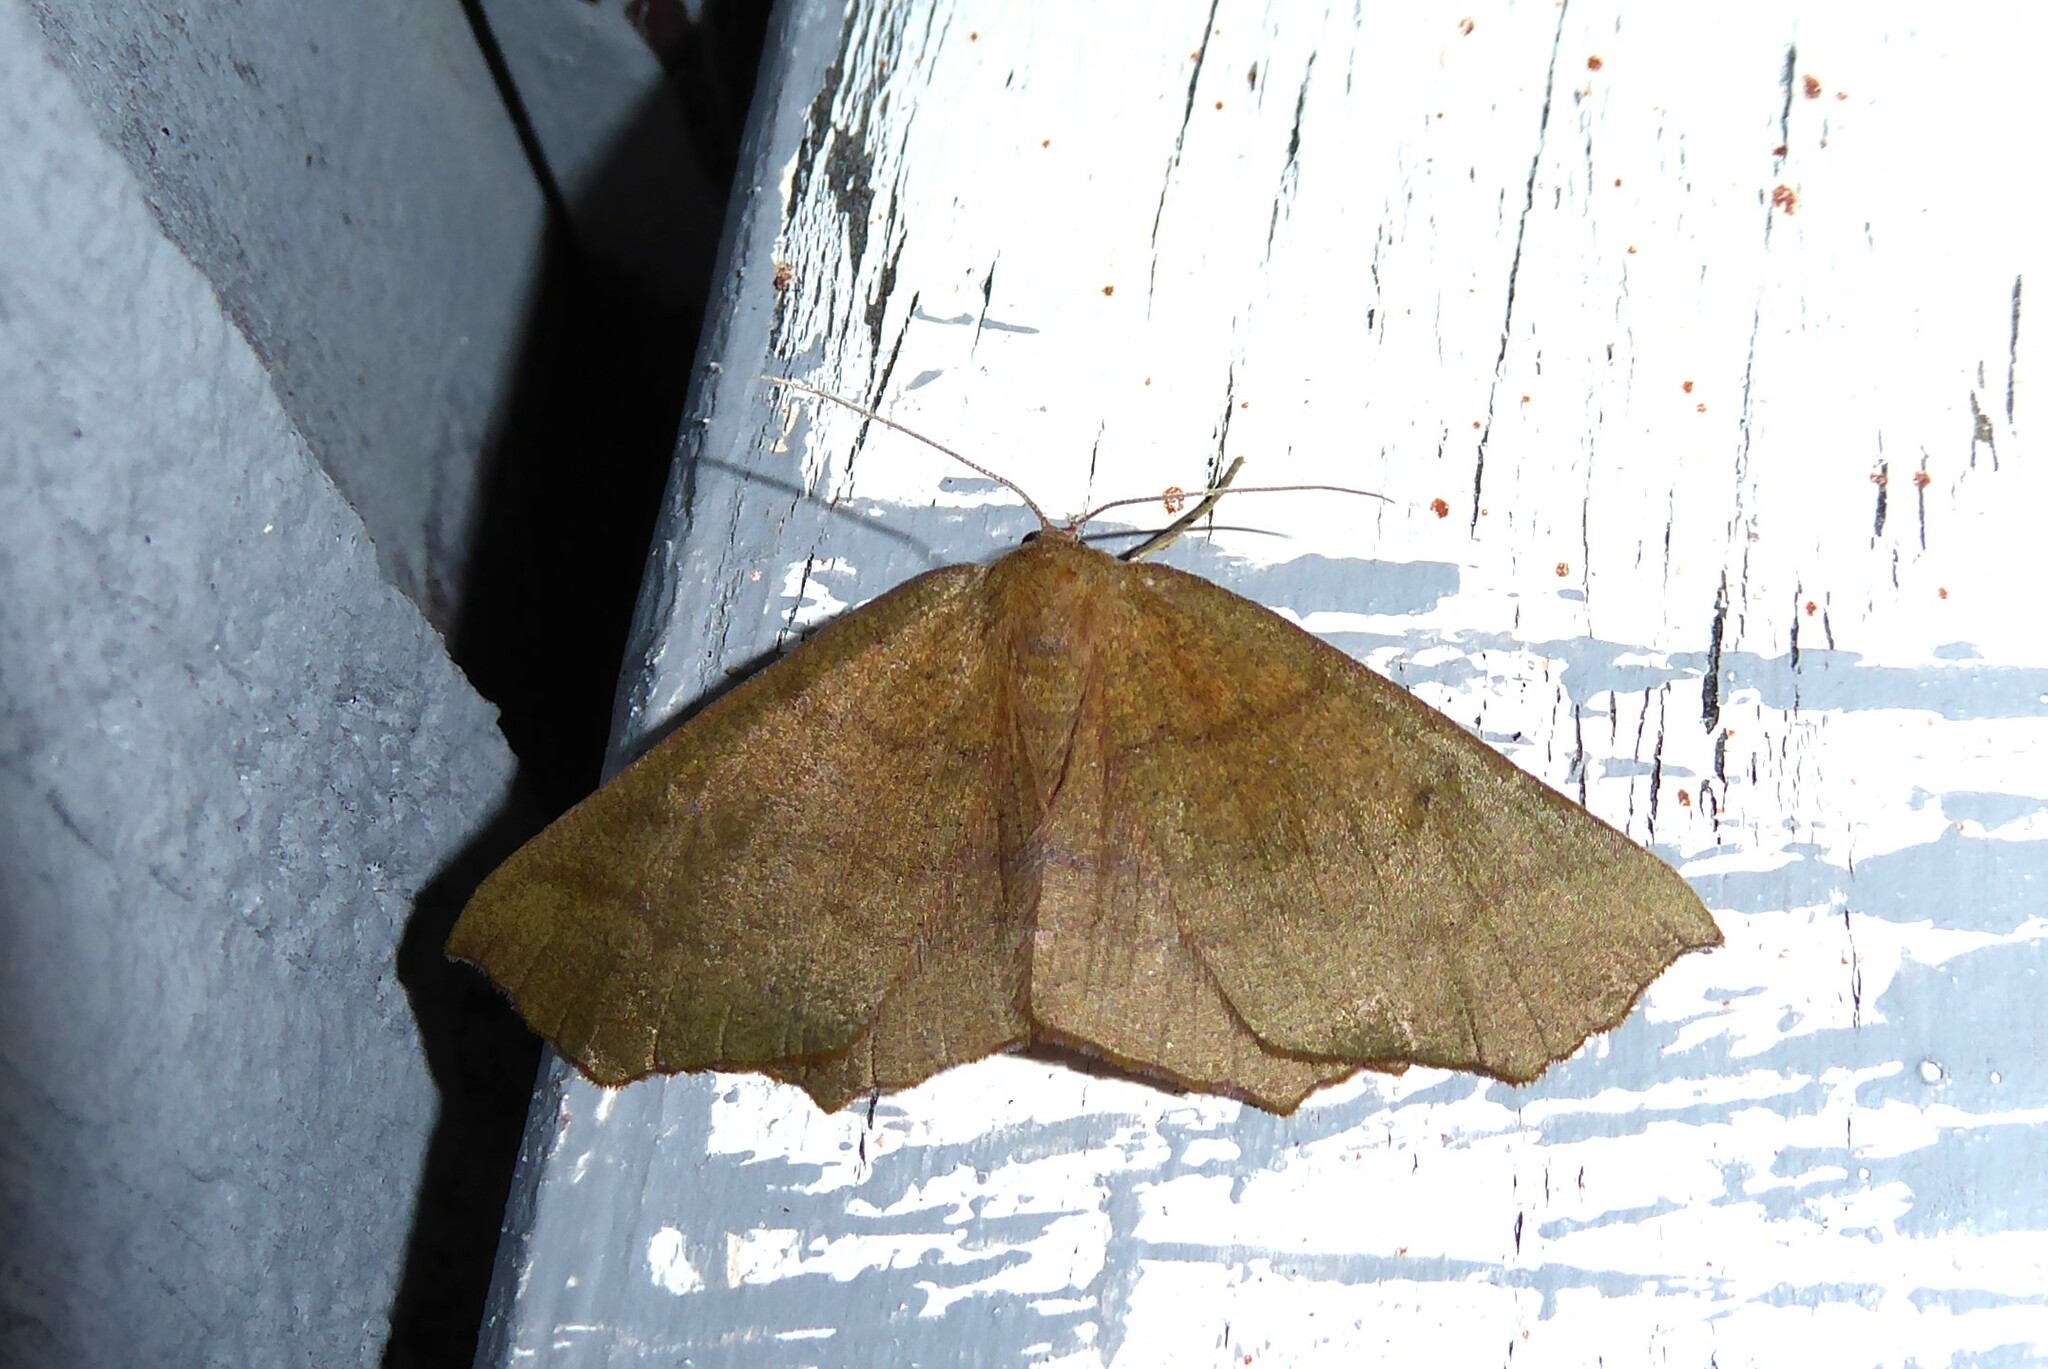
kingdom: Animalia
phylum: Arthropoda
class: Insecta
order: Lepidoptera
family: Geometridae
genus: Xyridacma
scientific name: Xyridacma ustaria
